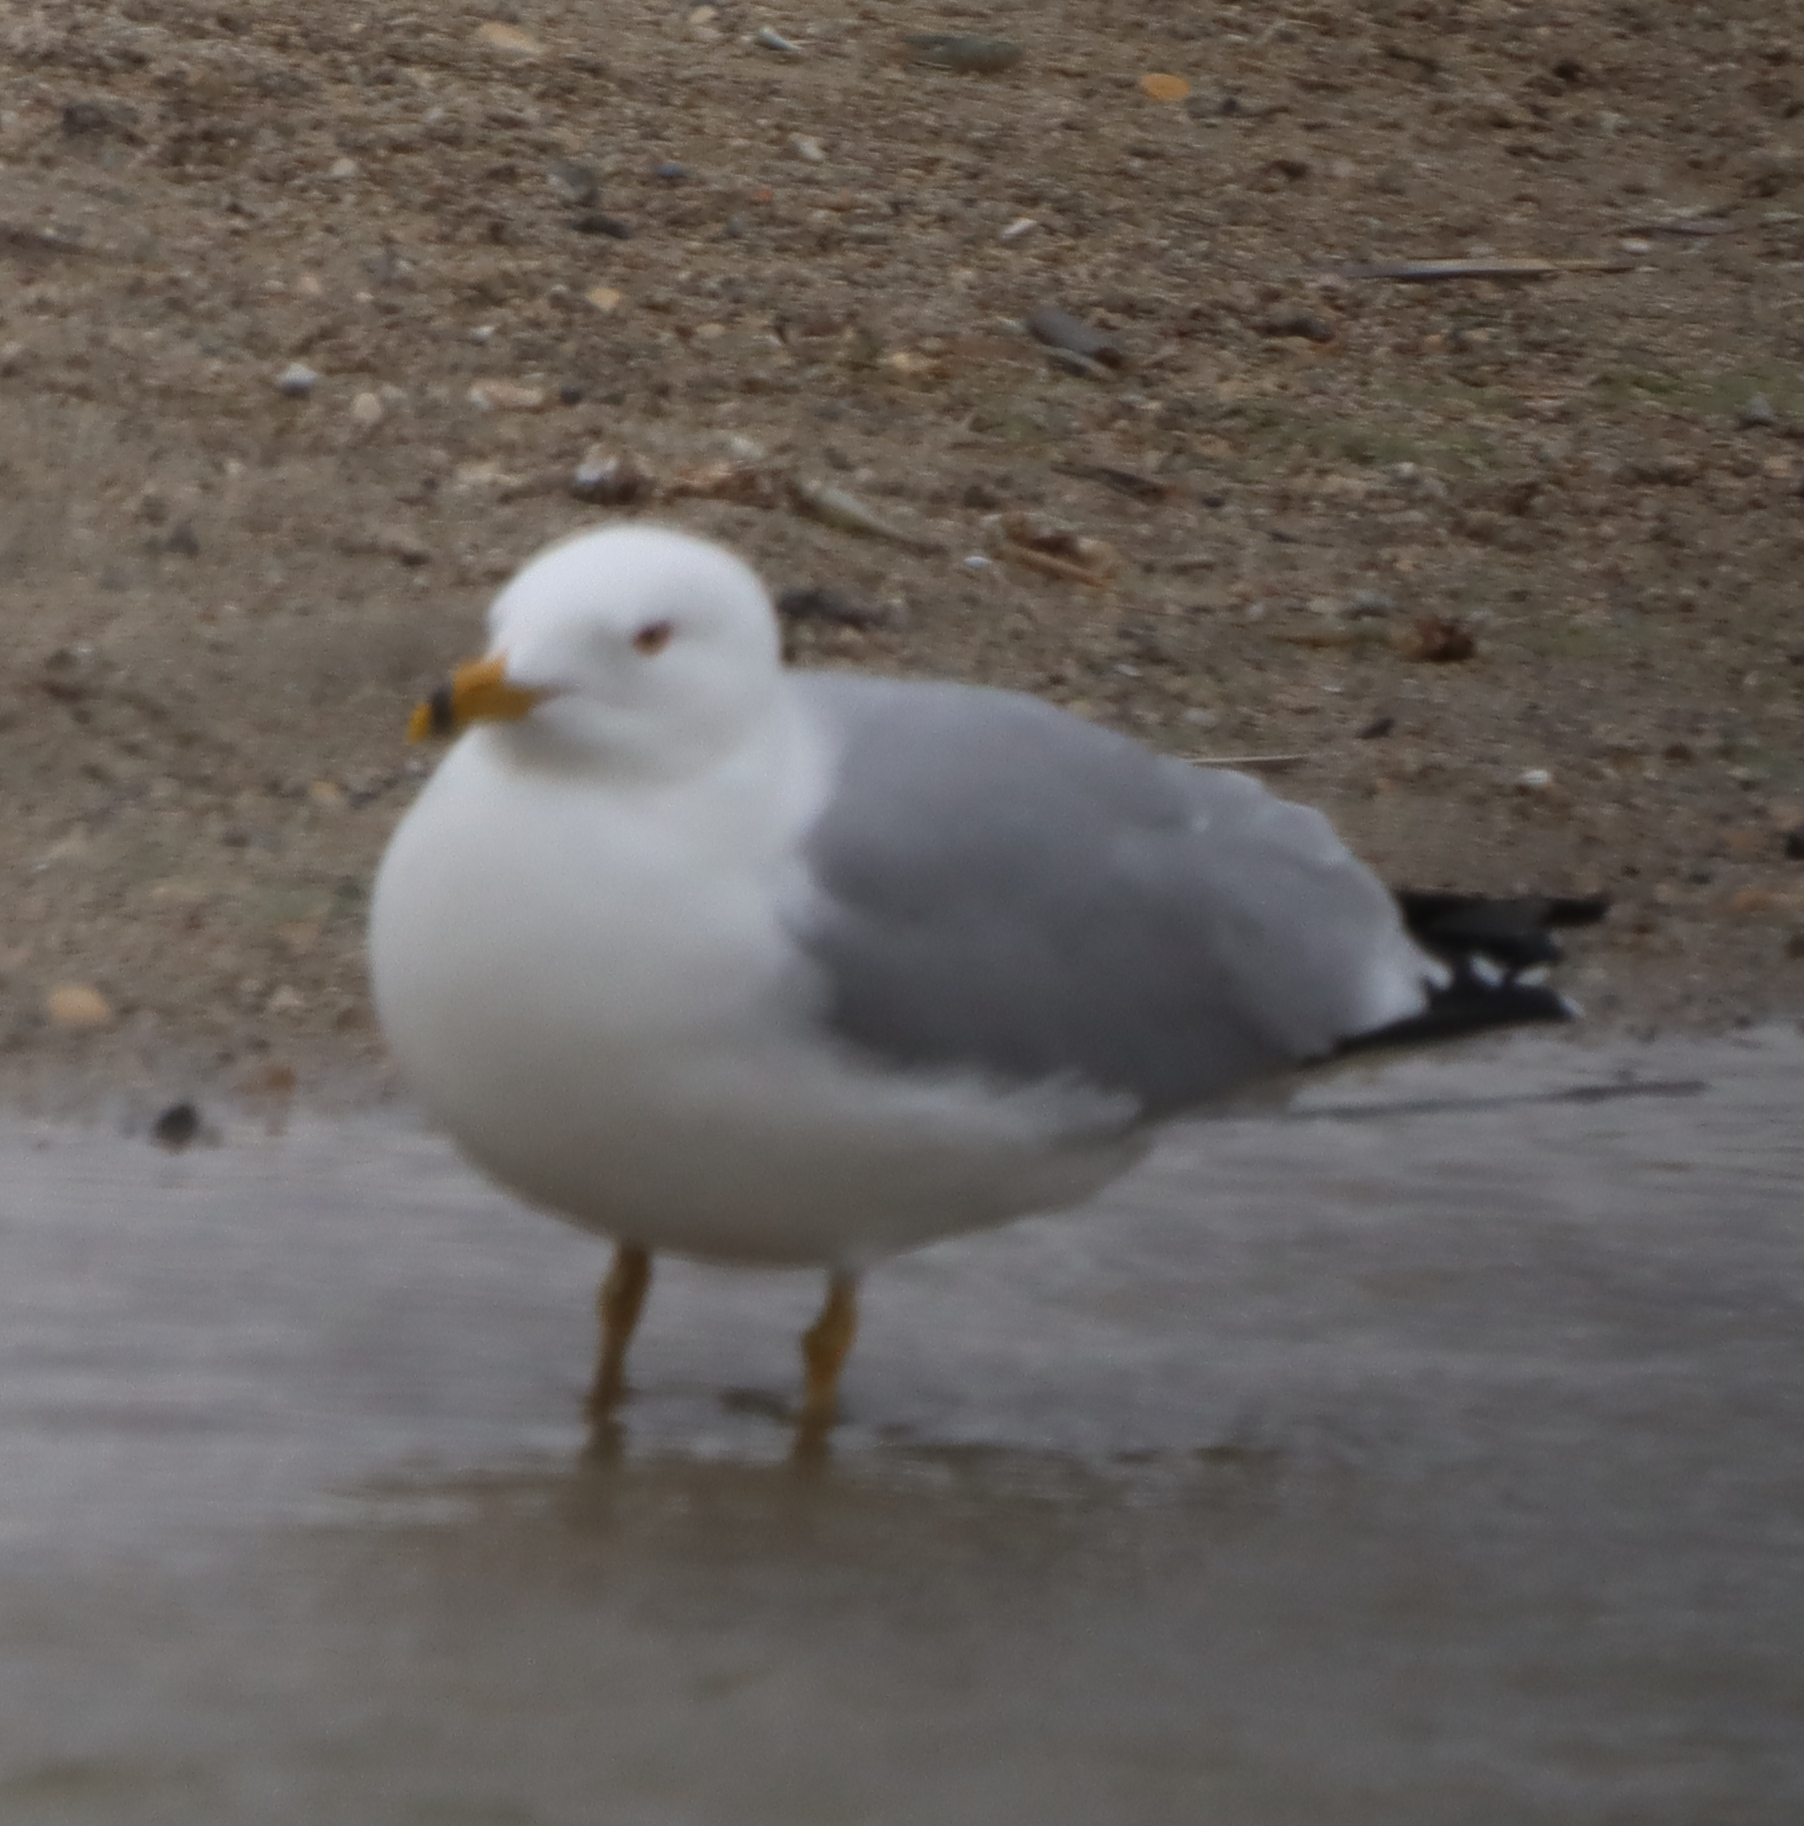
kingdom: Animalia
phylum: Chordata
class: Aves
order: Charadriiformes
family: Laridae
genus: Larus
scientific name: Larus delawarensis
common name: Ring-billed gull
